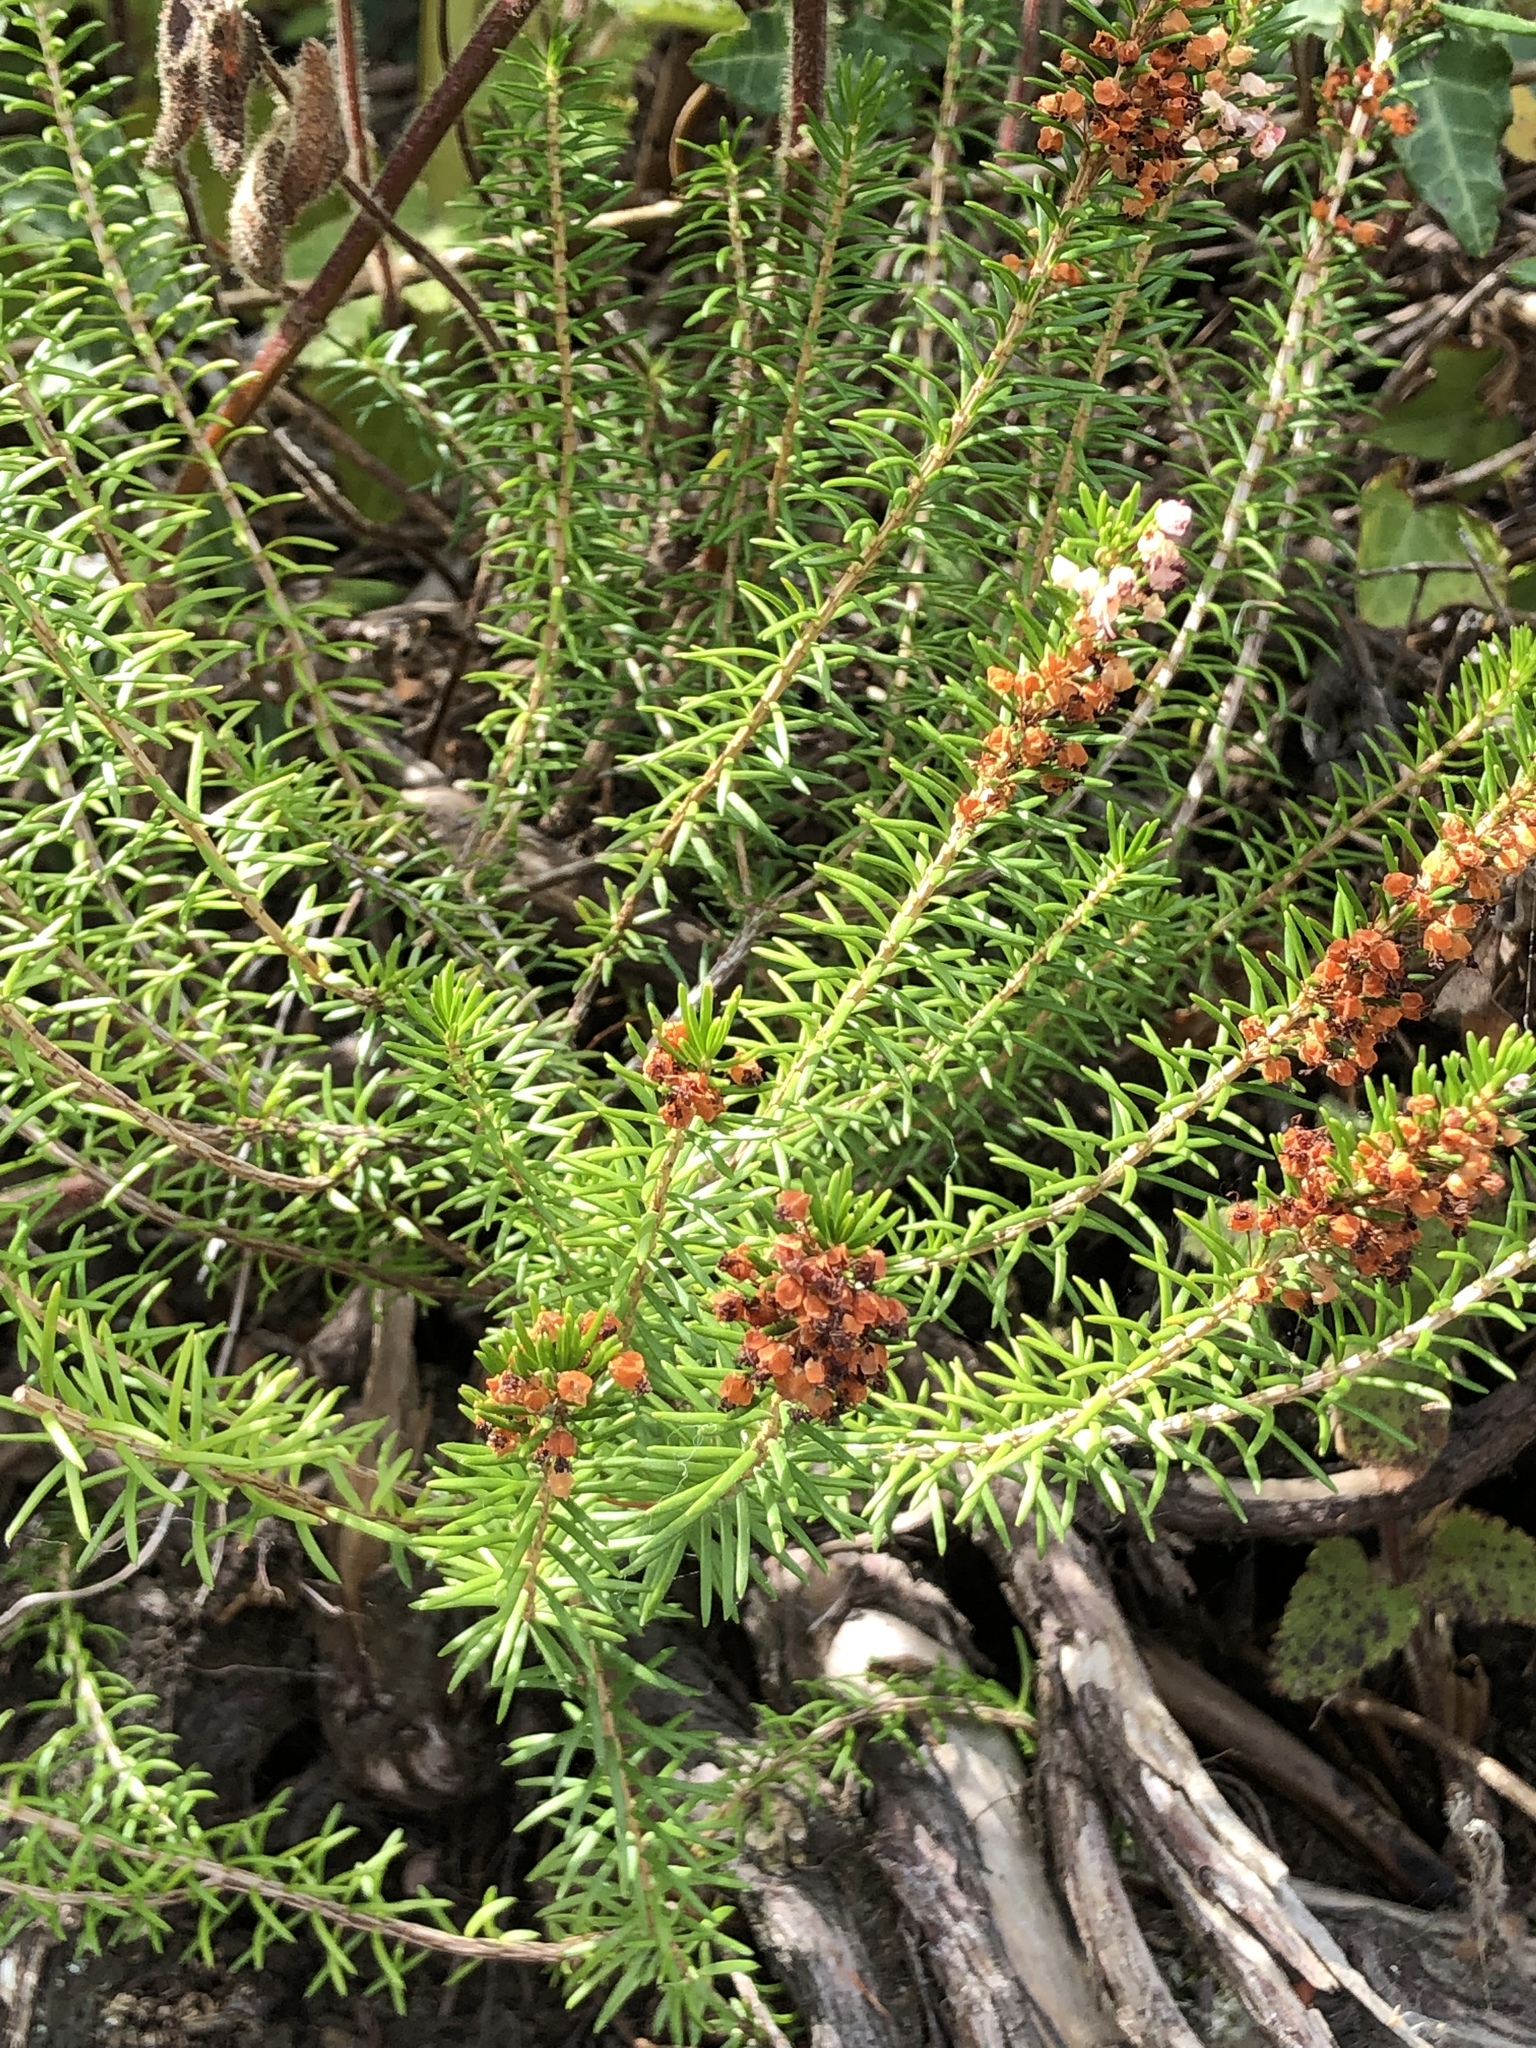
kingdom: Plantae
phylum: Tracheophyta
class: Magnoliopsida
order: Ericales
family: Ericaceae
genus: Erica
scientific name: Erica vagans
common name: Cornish heath
